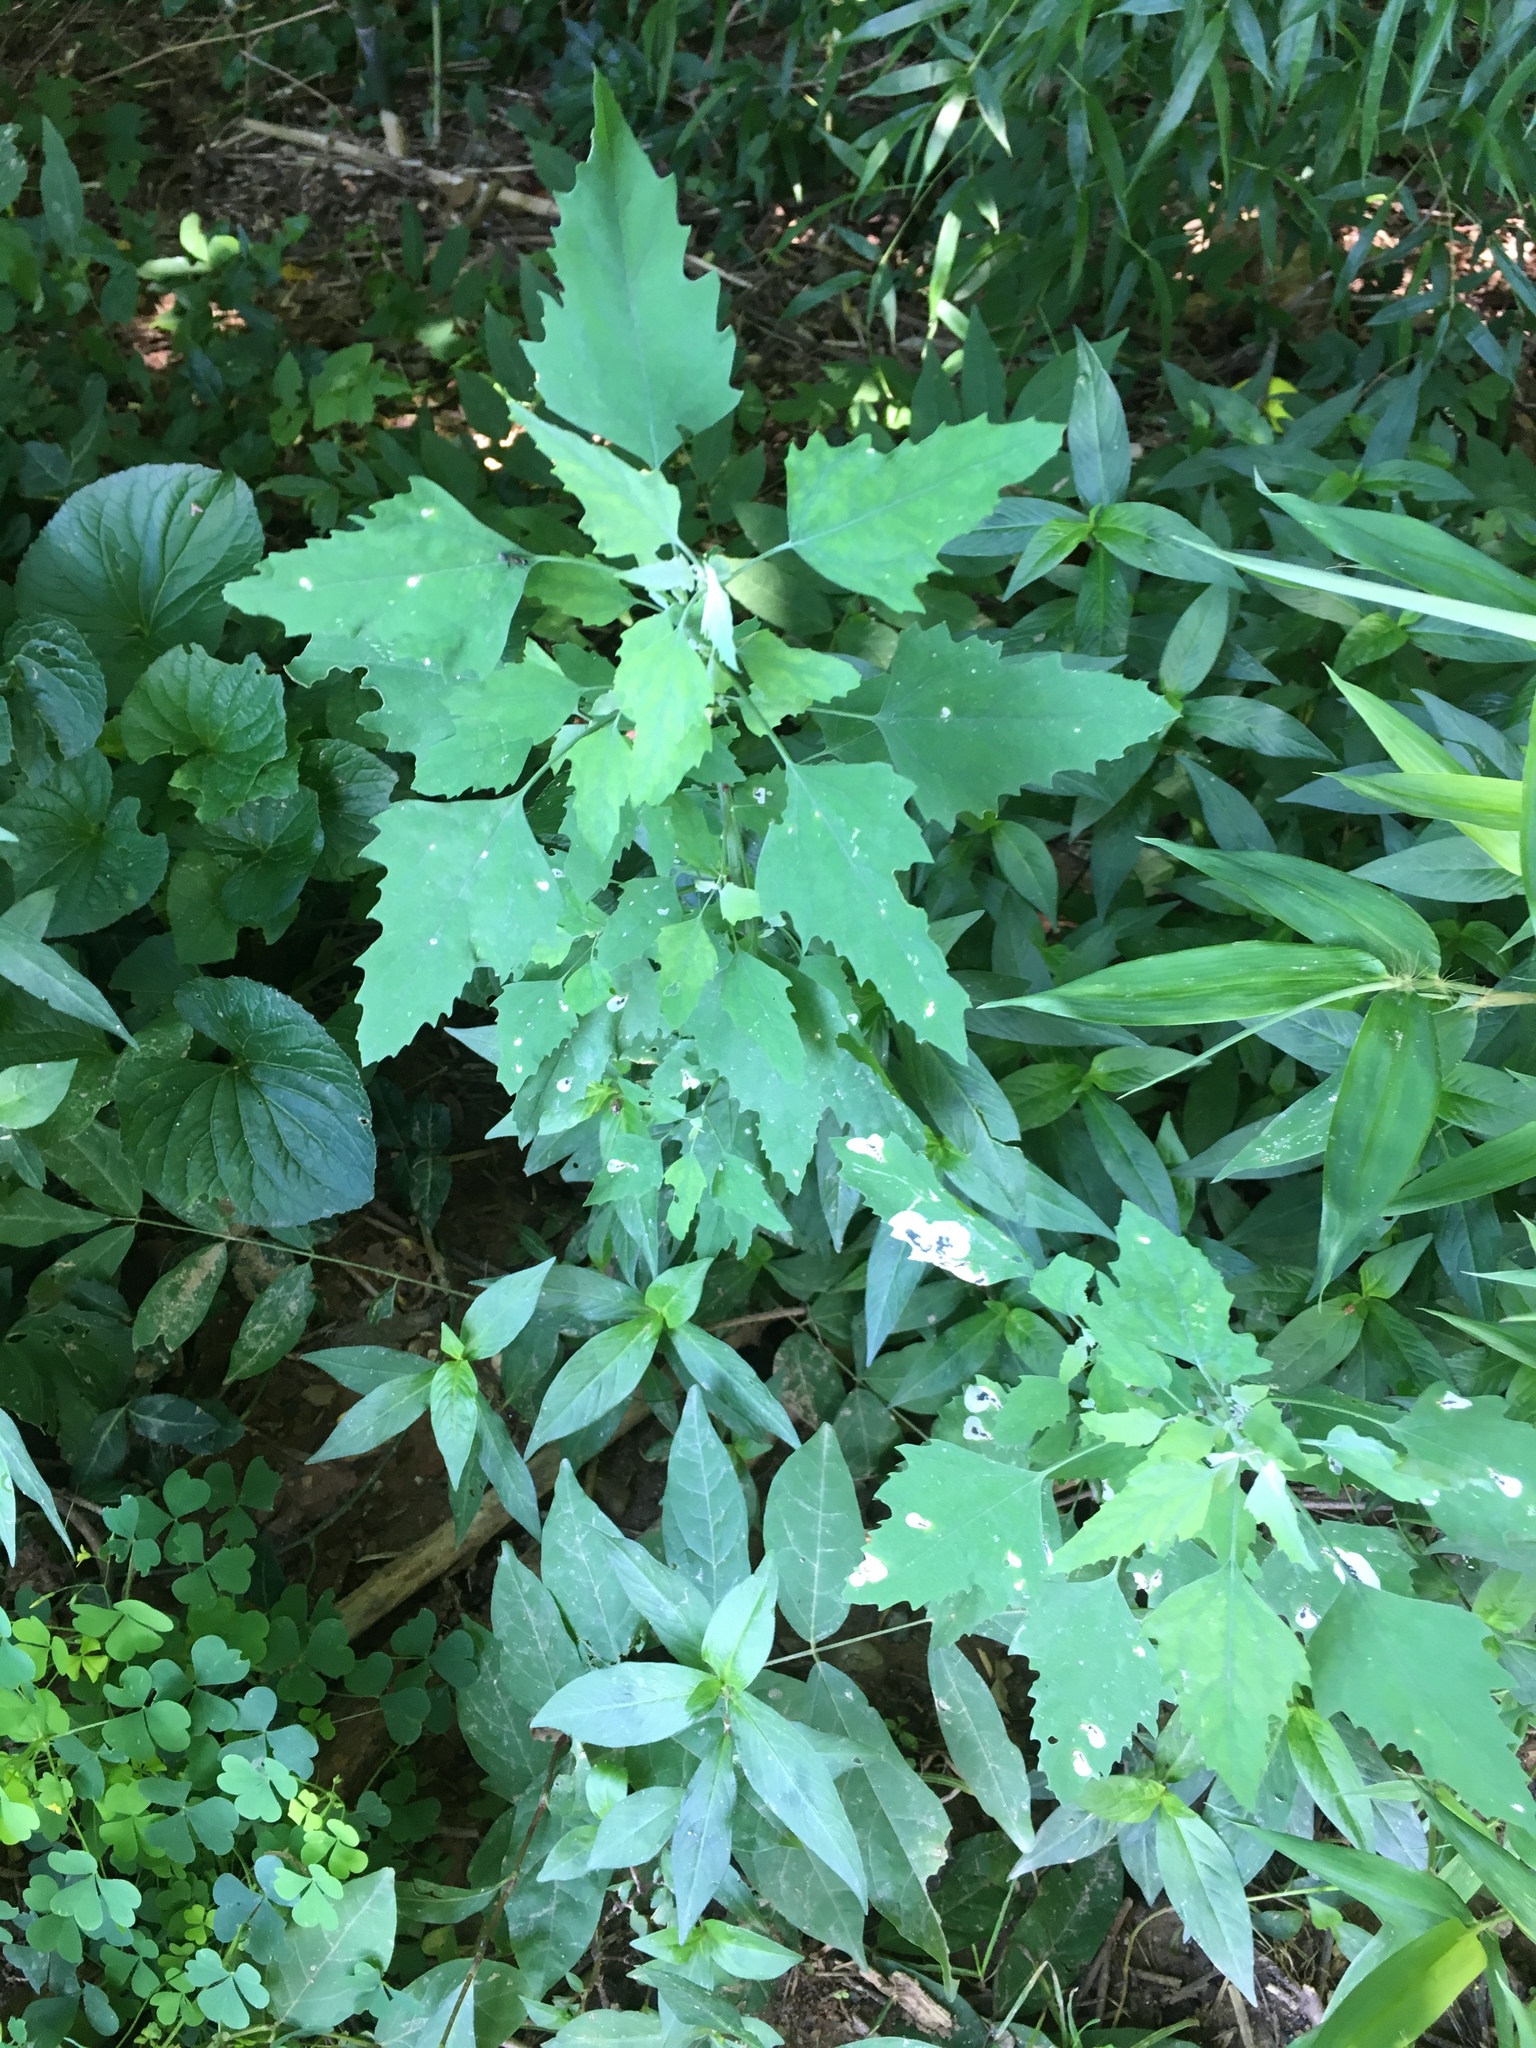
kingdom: Plantae
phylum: Tracheophyta
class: Magnoliopsida
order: Caryophyllales
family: Amaranthaceae
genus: Chenopodium
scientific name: Chenopodium album
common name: Fat-hen
